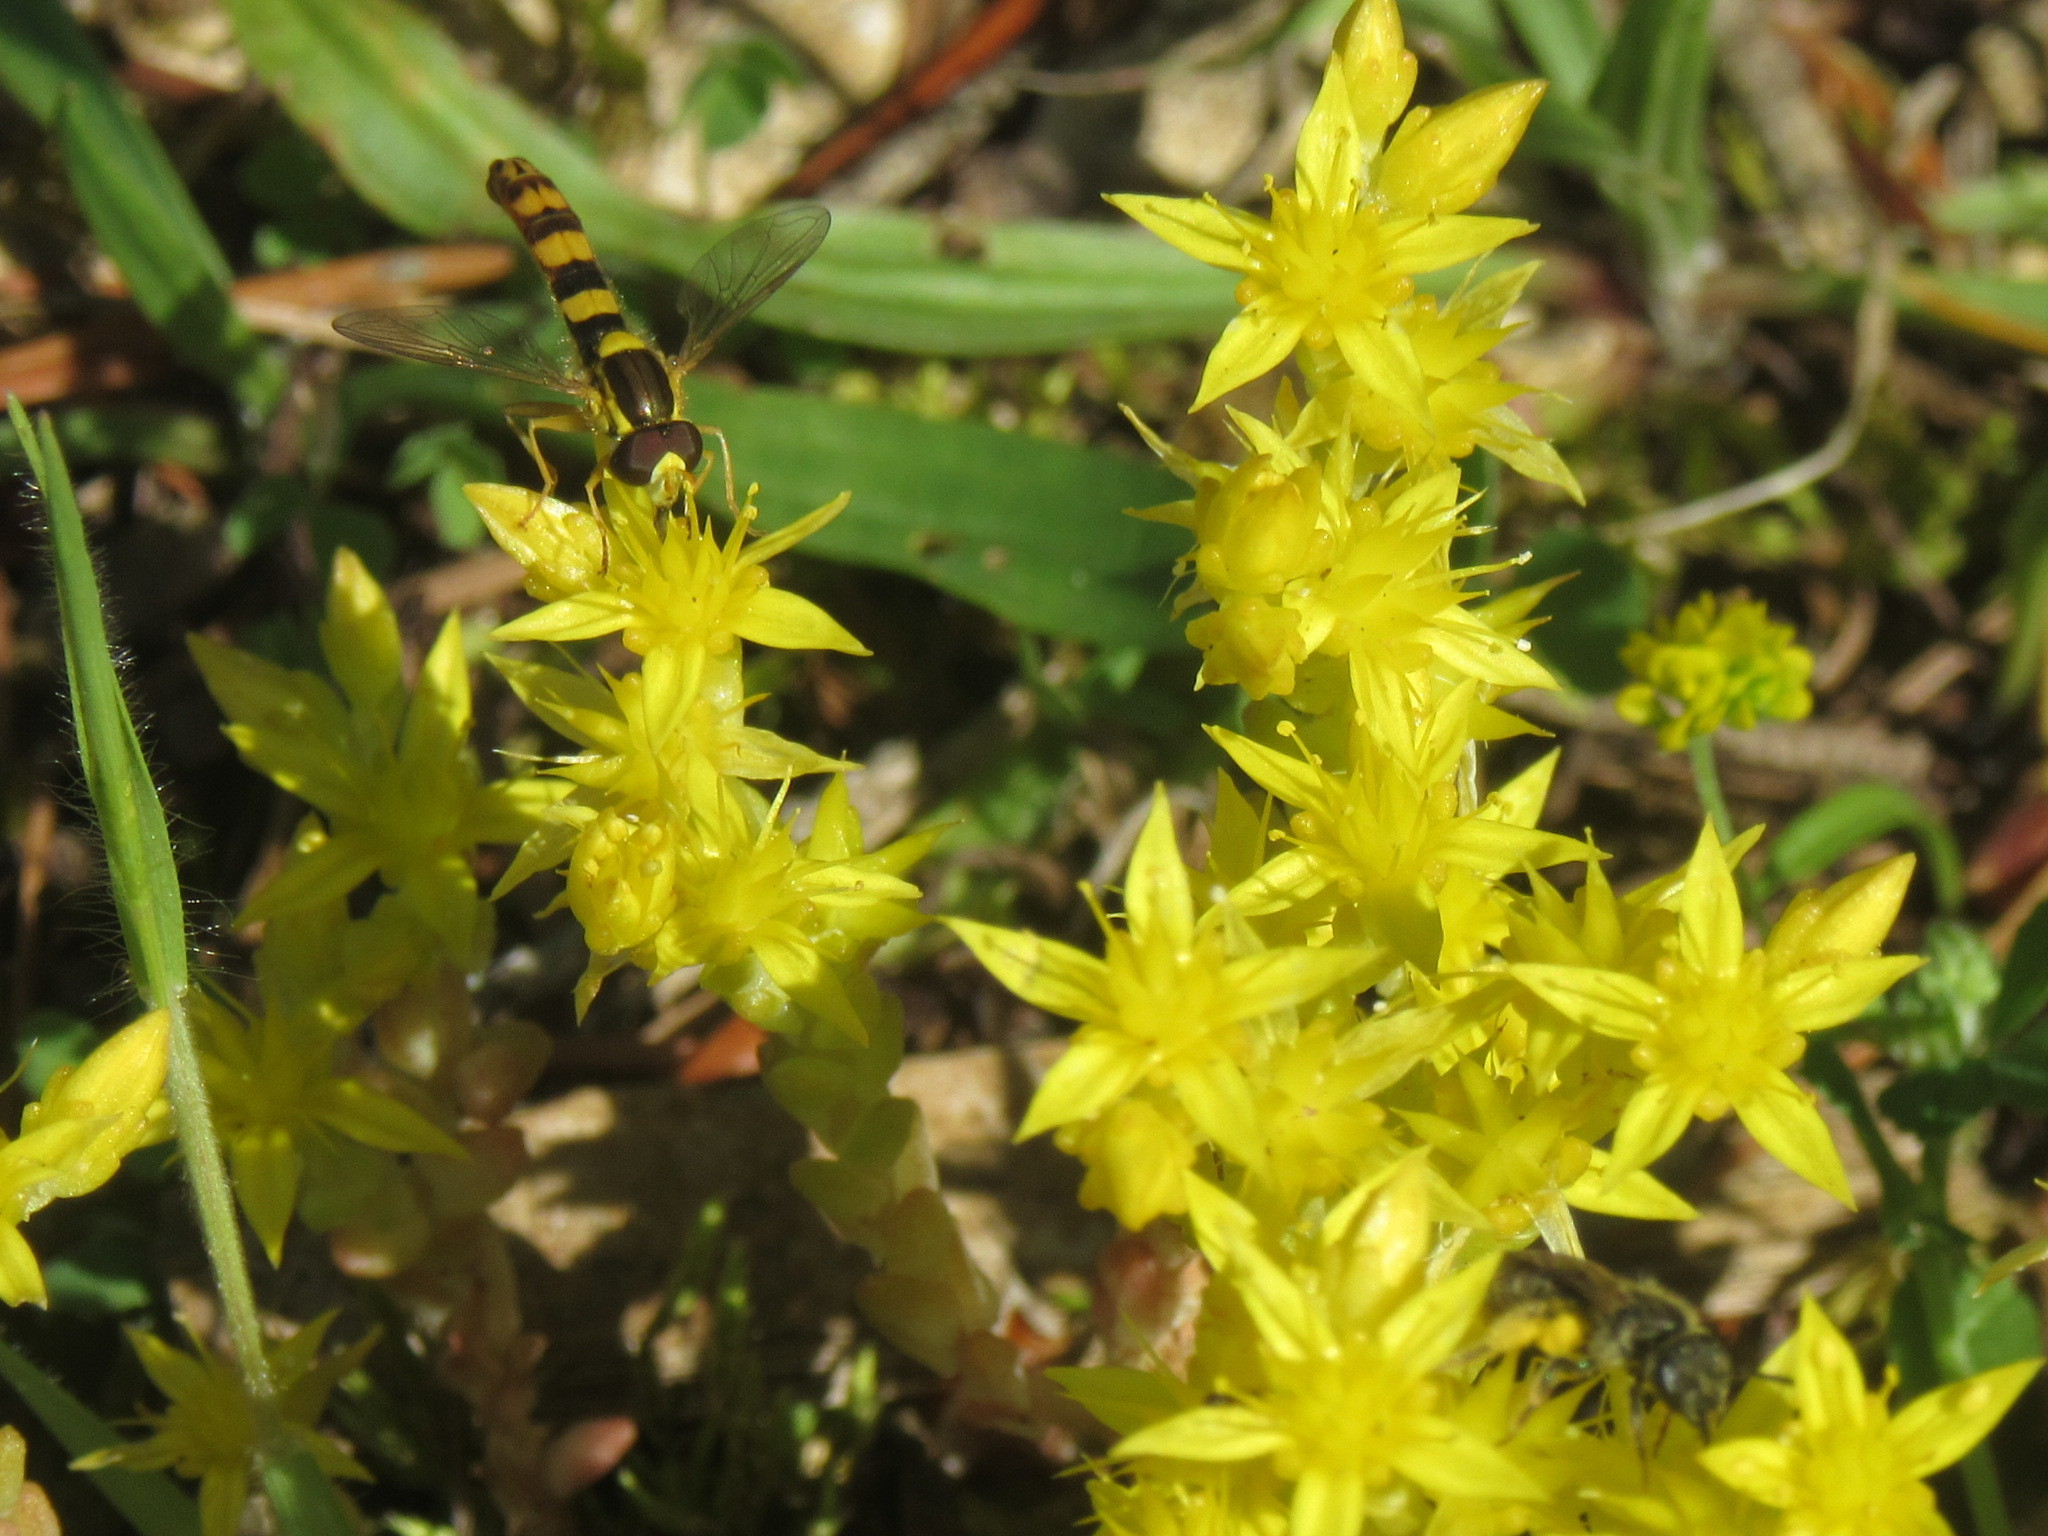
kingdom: Animalia
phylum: Arthropoda
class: Insecta
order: Diptera
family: Syrphidae
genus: Sphaerophoria
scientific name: Sphaerophoria scripta
